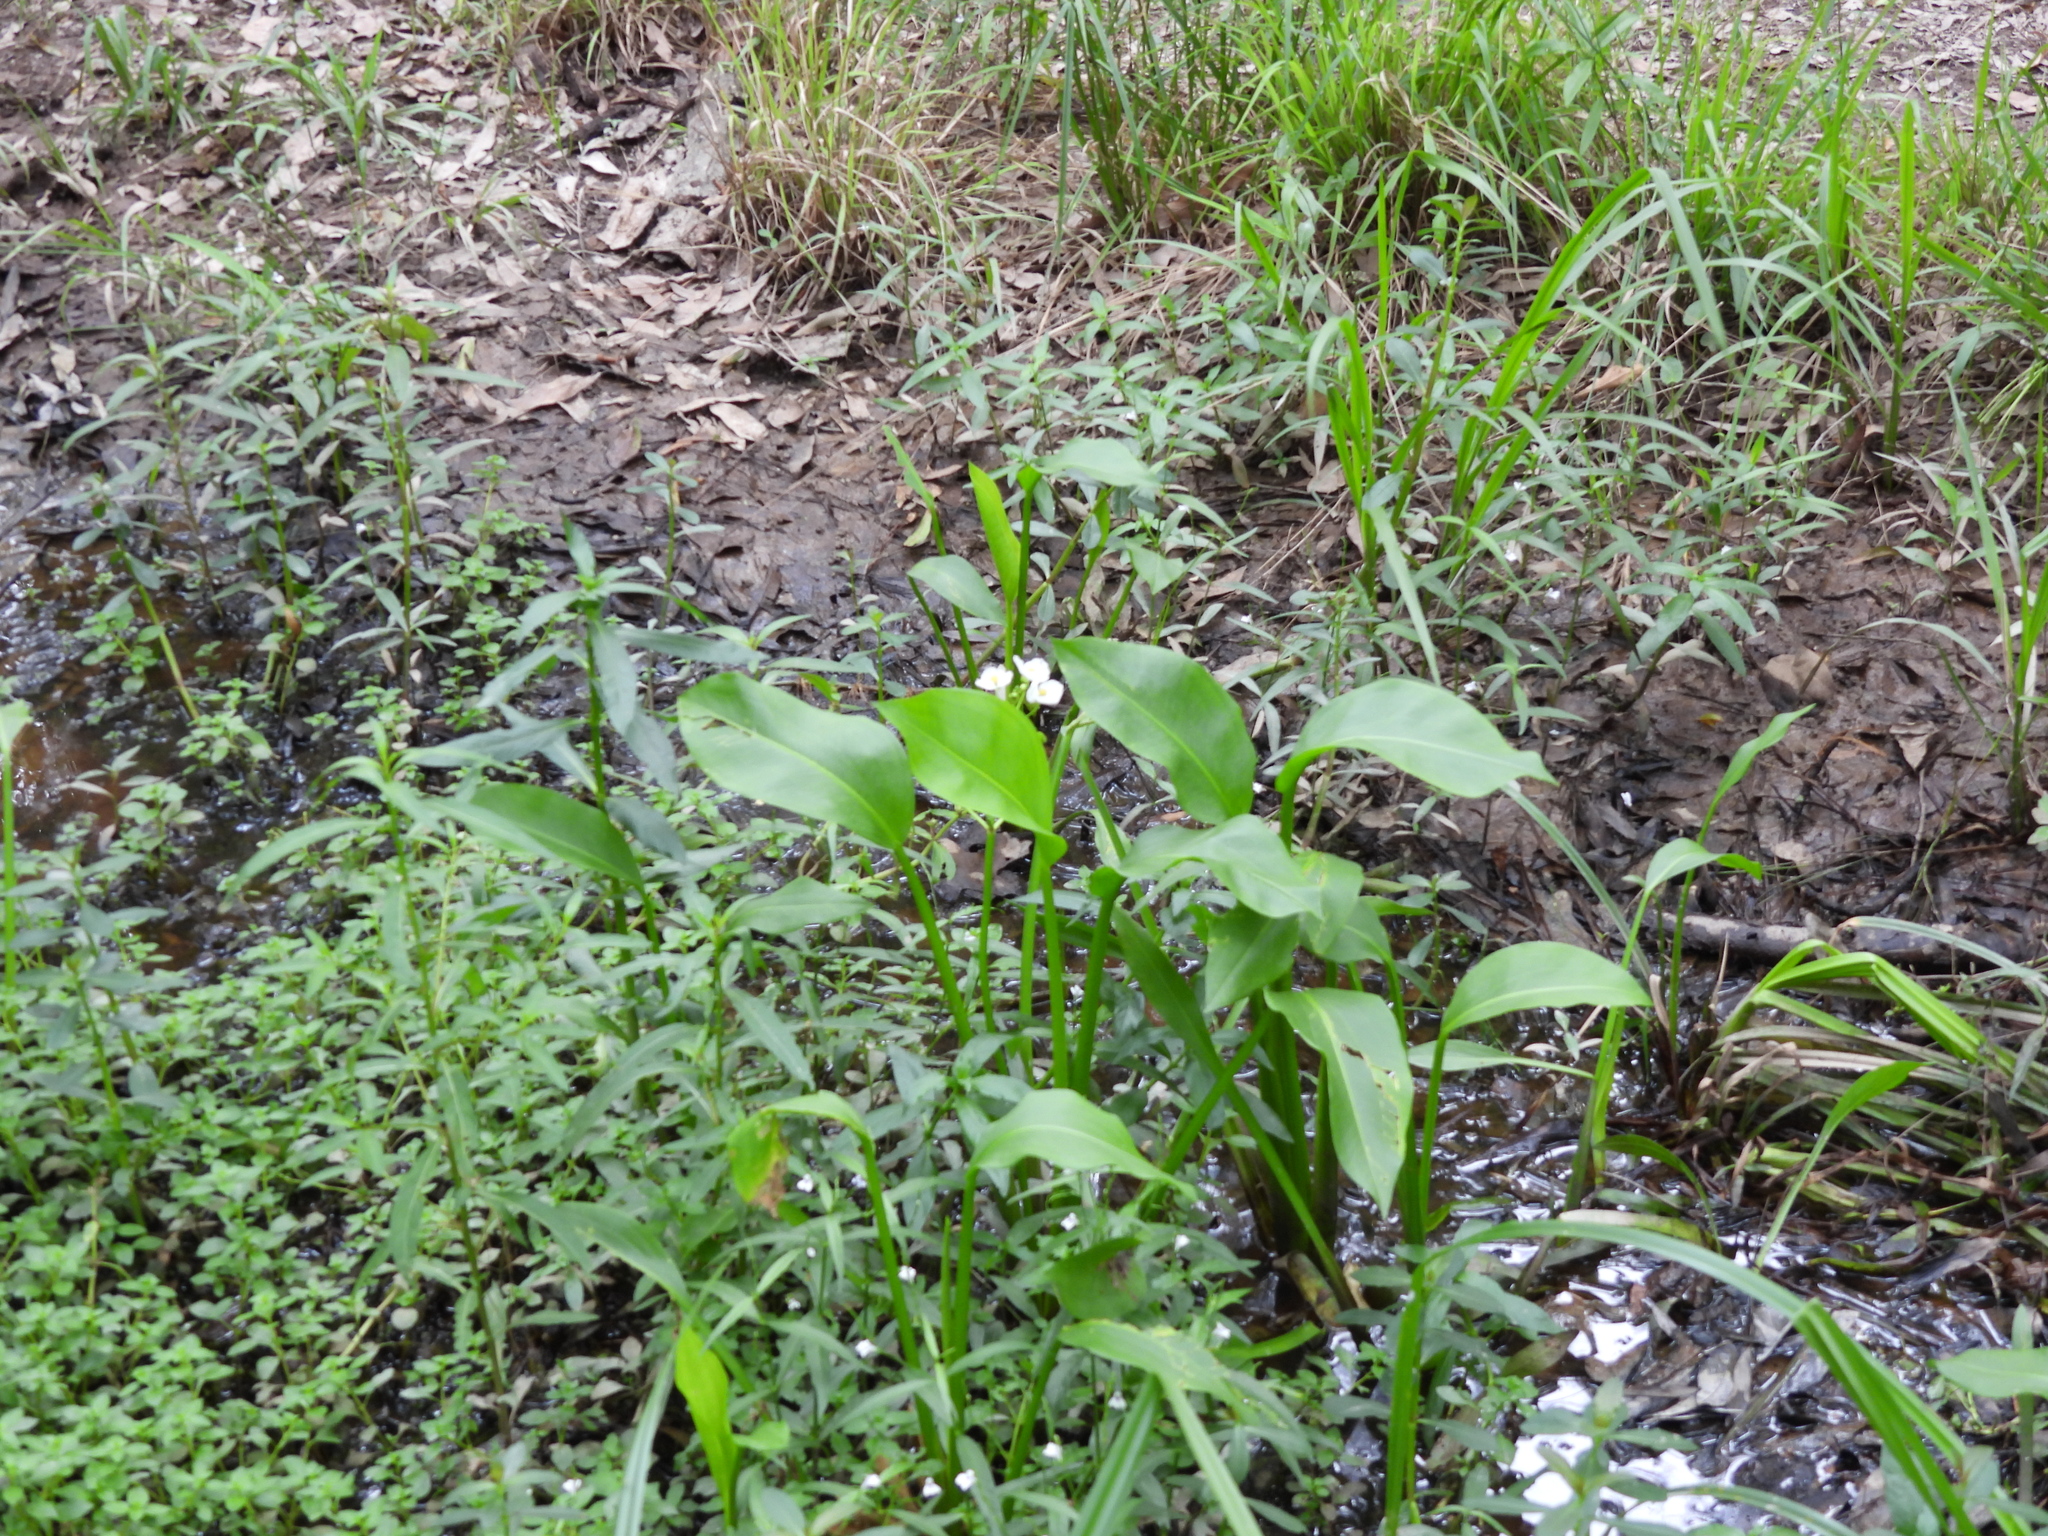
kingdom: Plantae
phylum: Tracheophyta
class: Liliopsida
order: Alismatales
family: Alismataceae
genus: Sagittaria
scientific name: Sagittaria platyphylla
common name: Broad-leaf arrowhead
